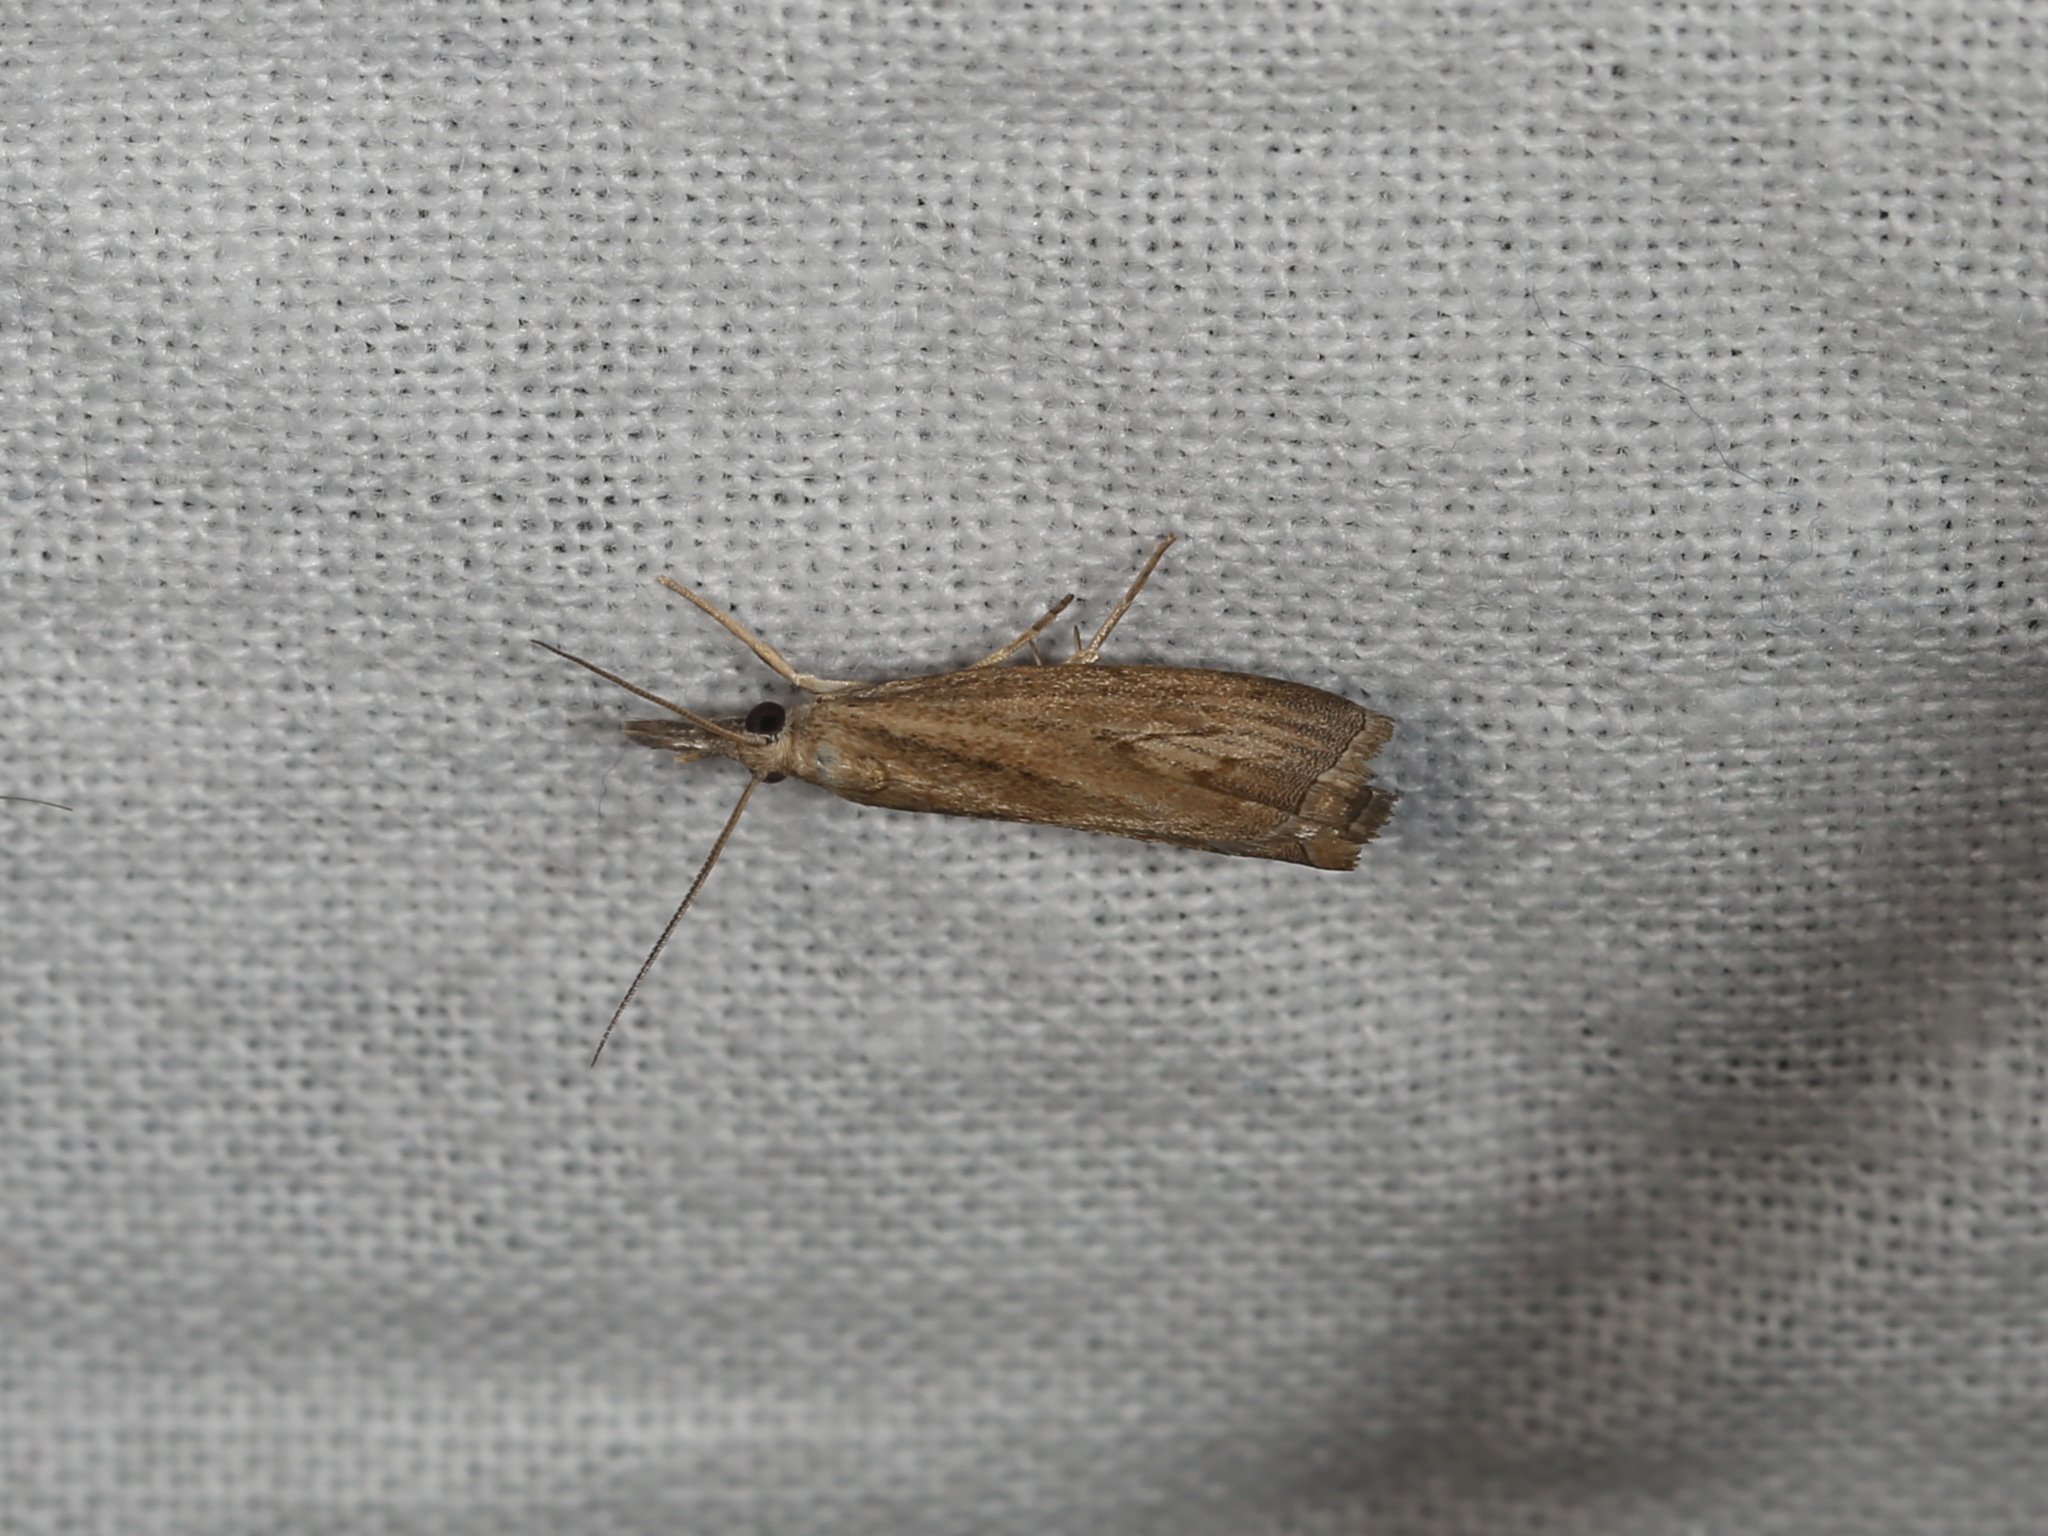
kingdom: Animalia
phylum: Arthropoda
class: Insecta
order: Lepidoptera
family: Crambidae
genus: Culladia
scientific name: Culladia cuneiferellus
